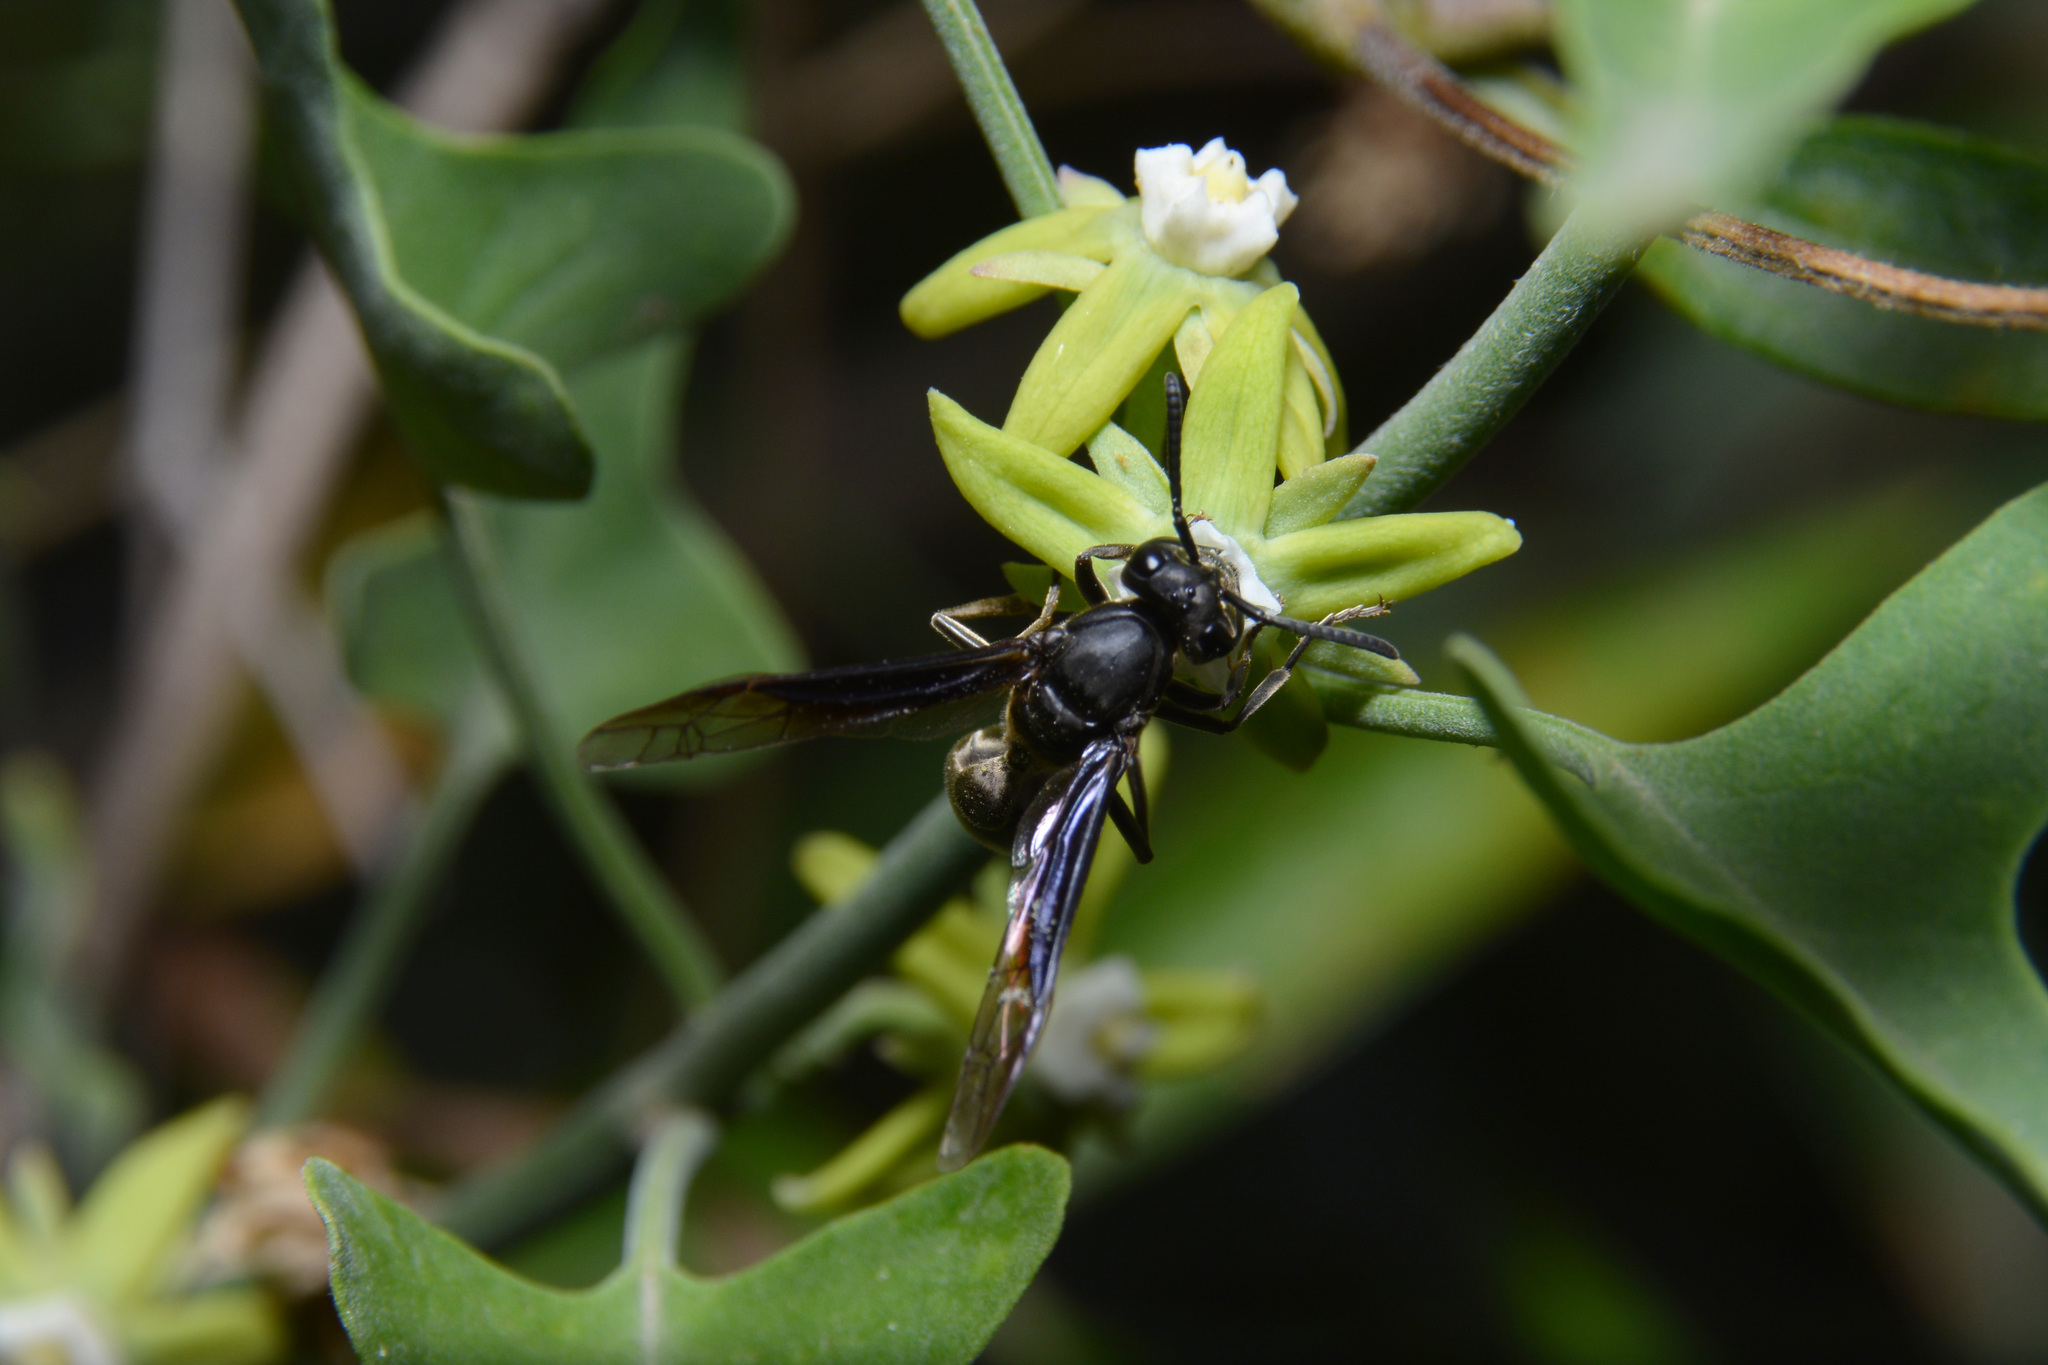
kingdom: Animalia
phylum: Arthropoda
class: Insecta
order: Hymenoptera
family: Eumenidae
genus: Polybia
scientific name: Polybia ignobilis
